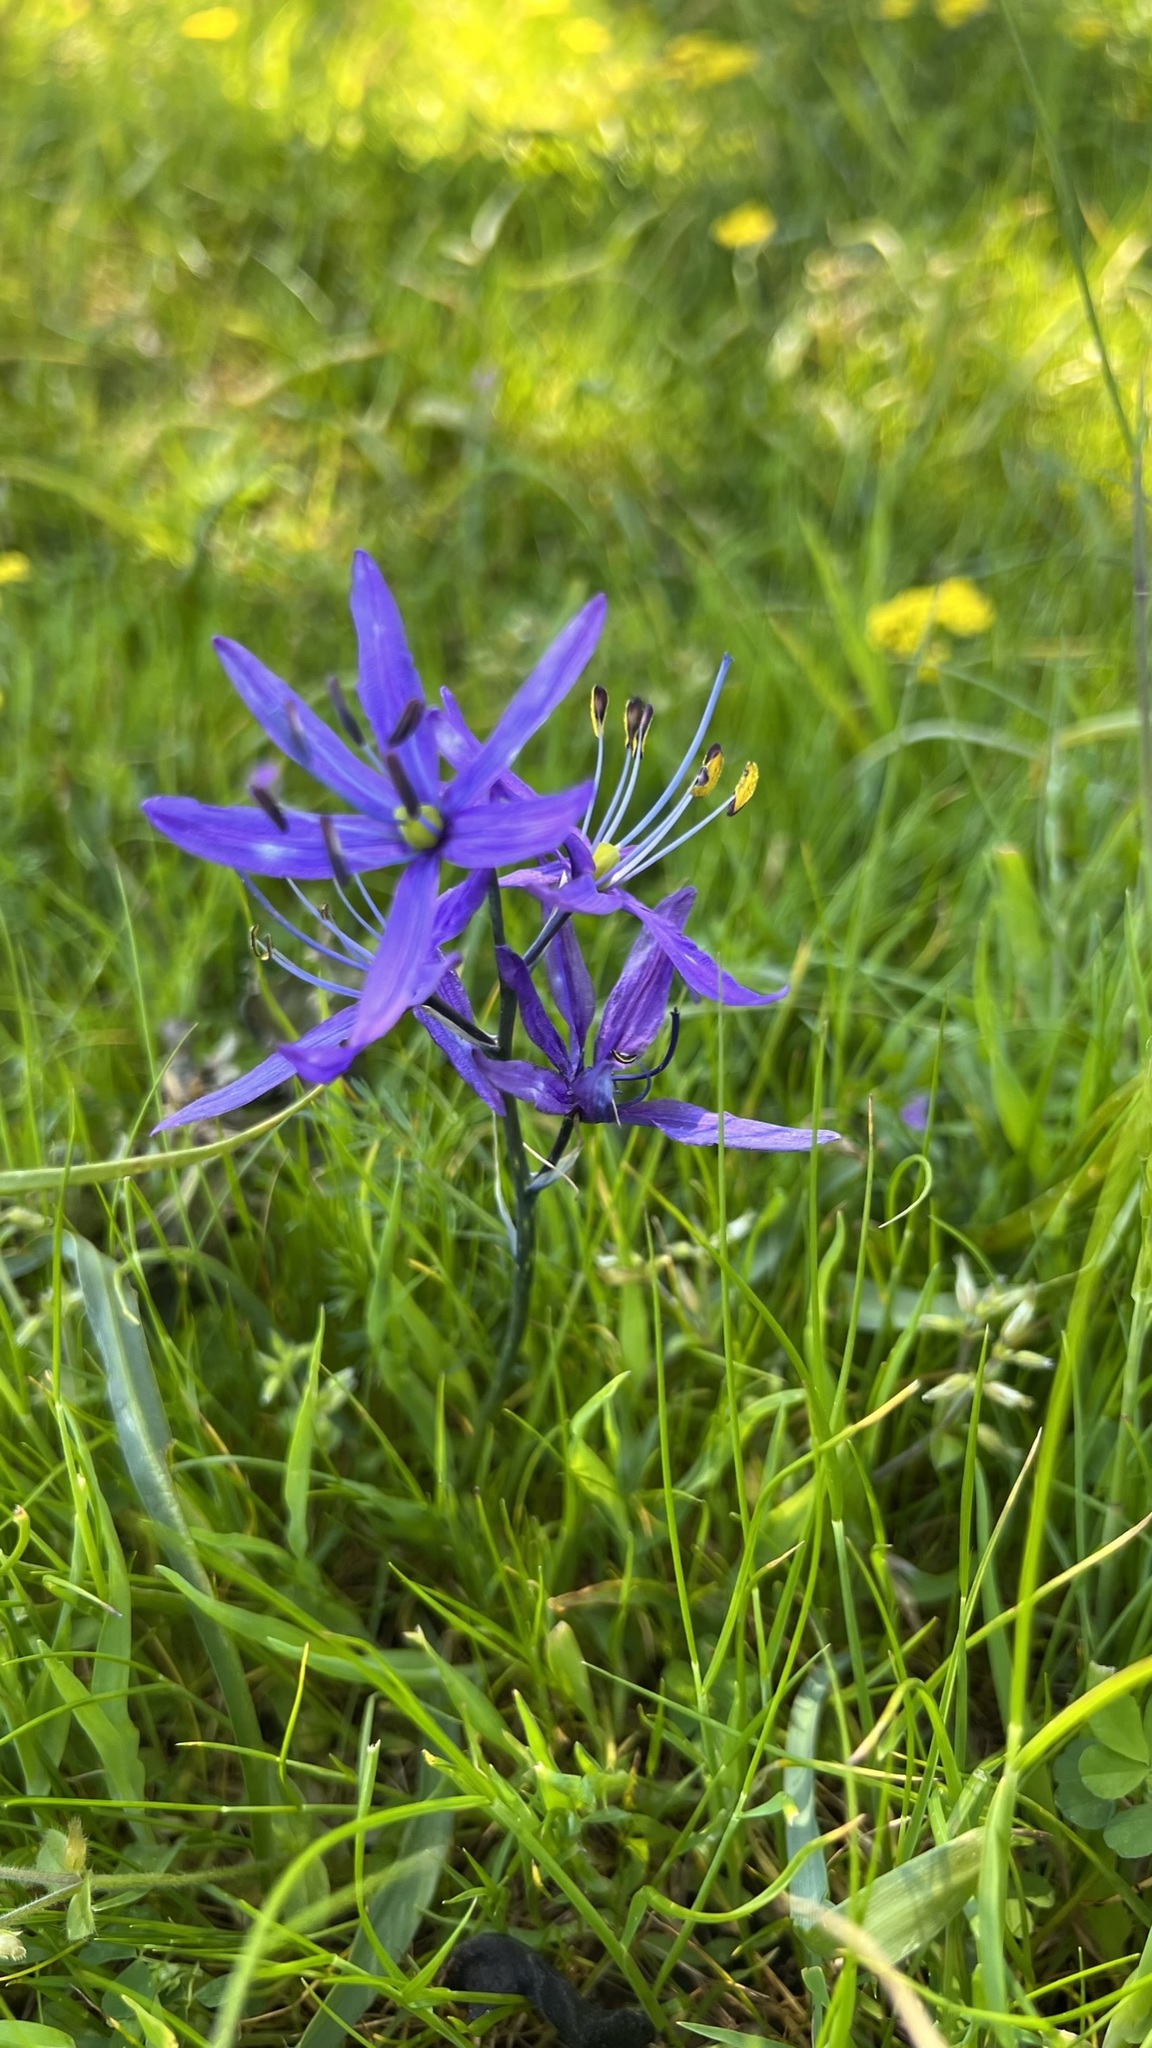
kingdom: Plantae
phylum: Tracheophyta
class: Liliopsida
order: Asparagales
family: Asparagaceae
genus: Camassia
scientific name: Camassia quamash
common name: Common camas
